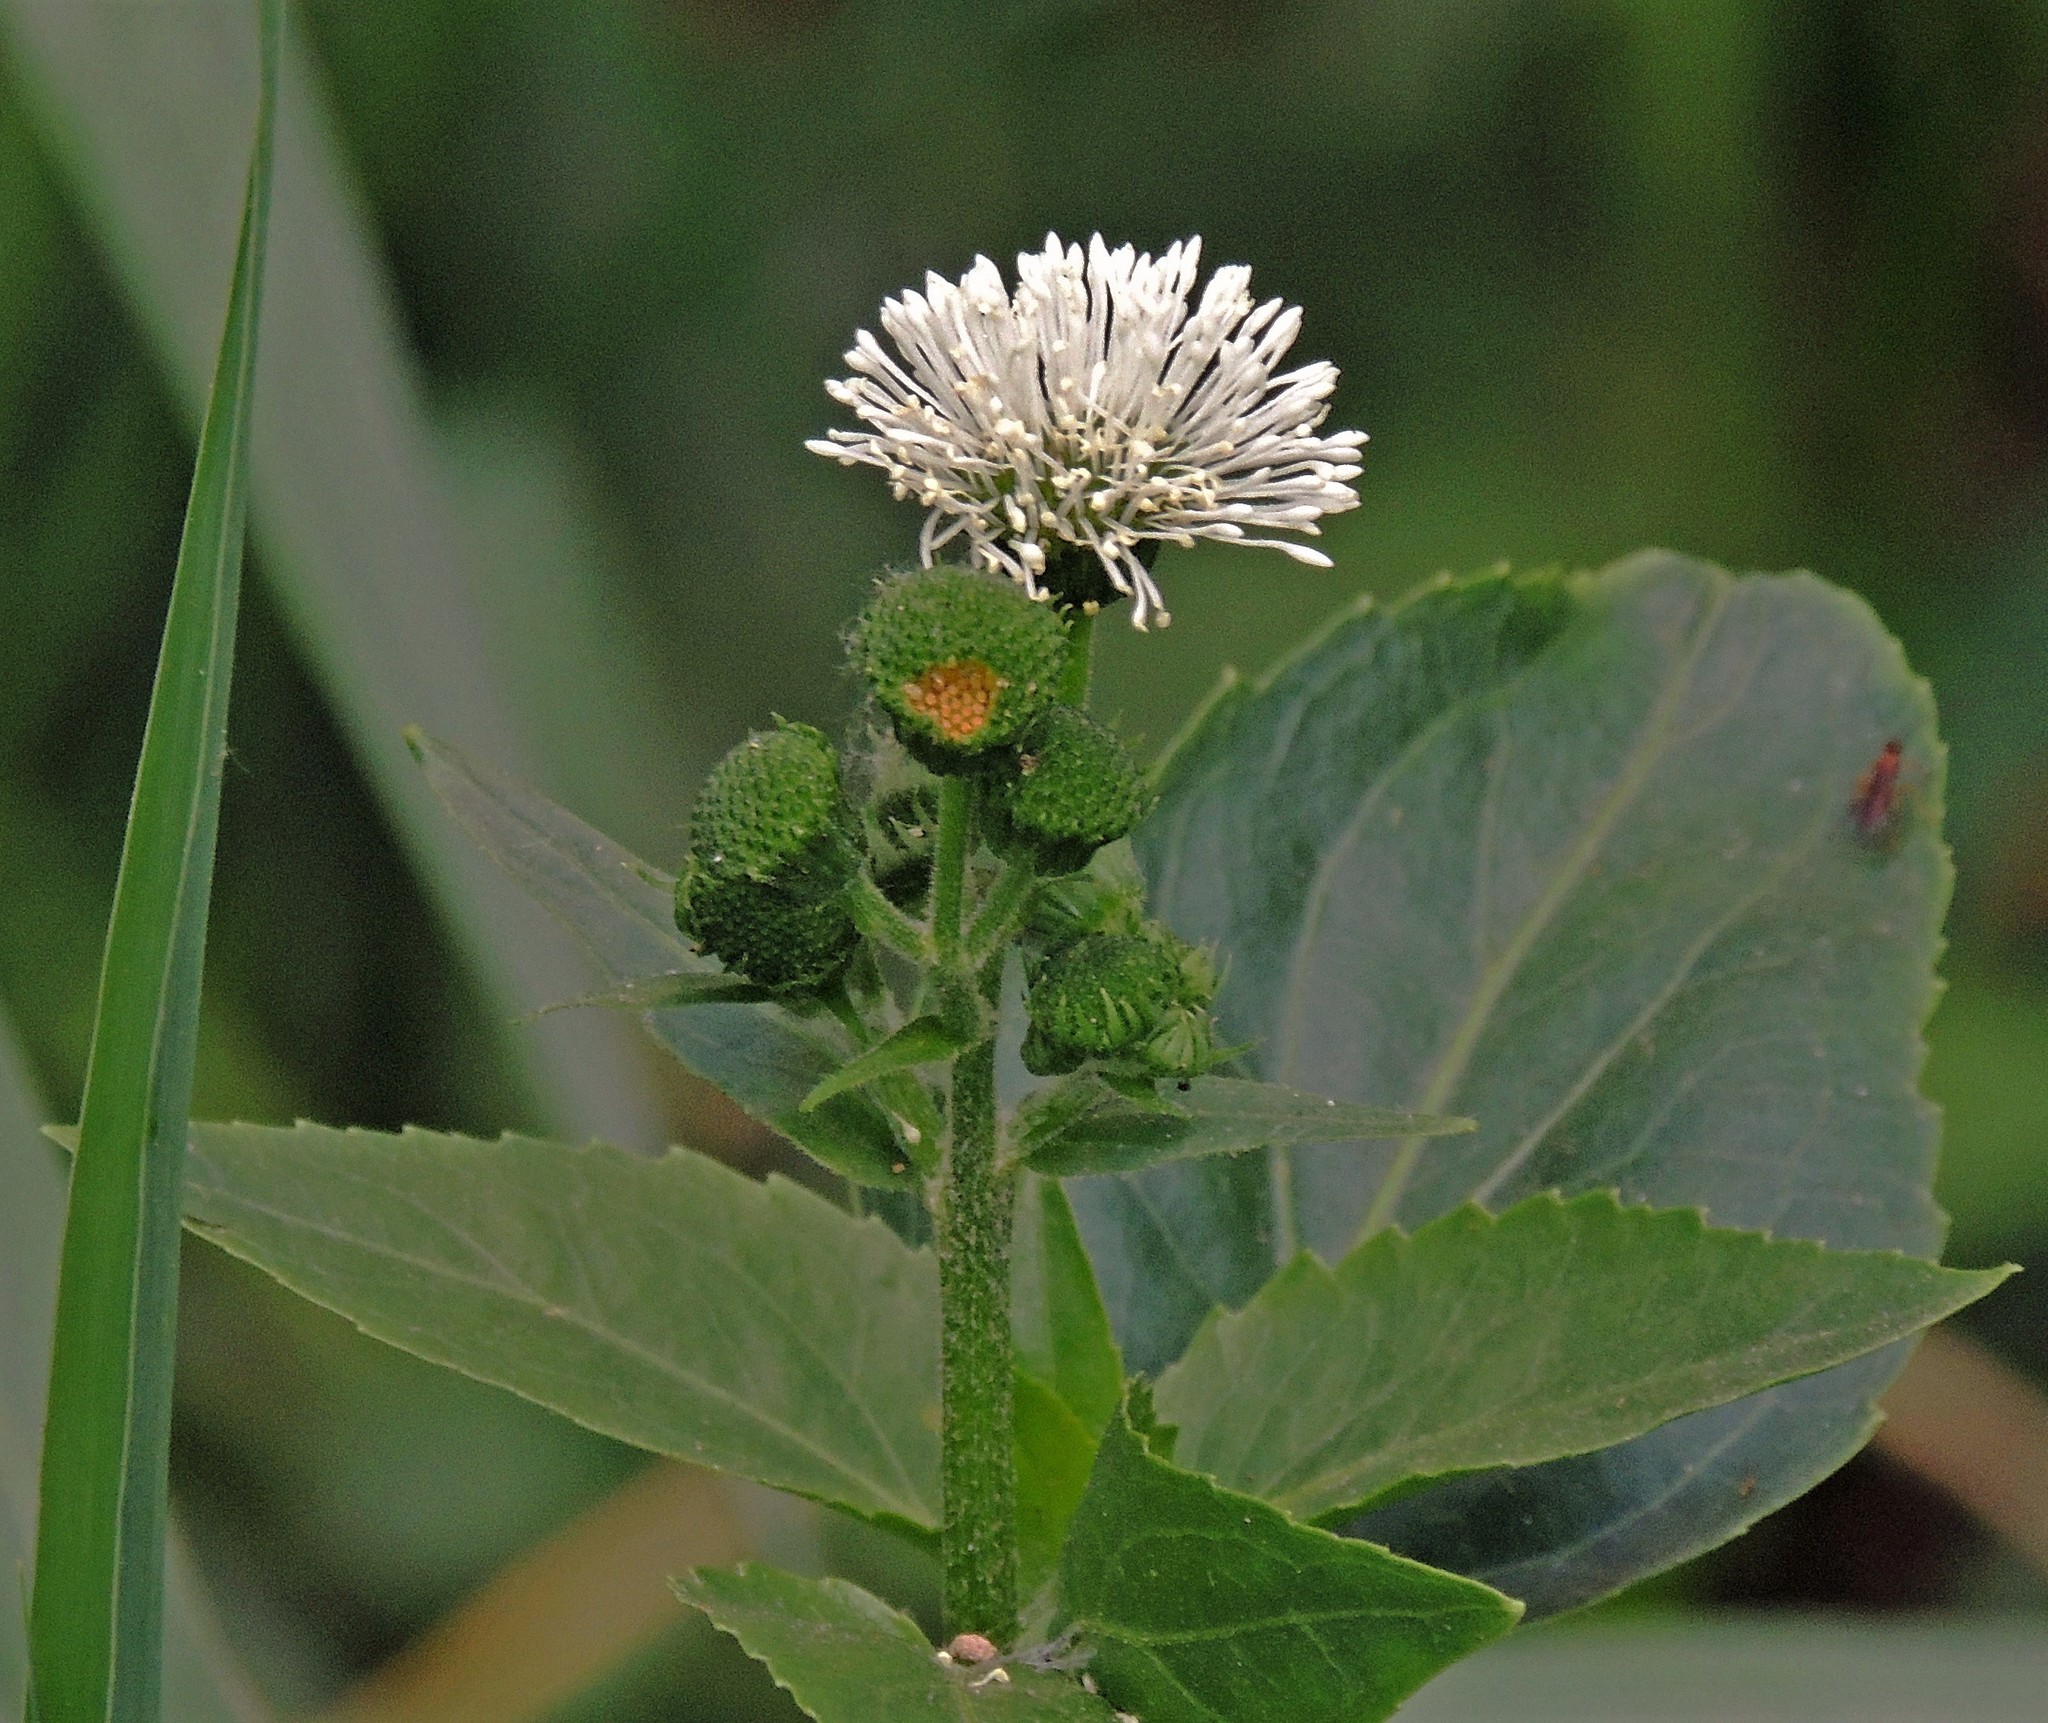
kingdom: Plantae
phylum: Tracheophyta
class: Magnoliopsida
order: Asterales
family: Asteraceae
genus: Gymnocoronis
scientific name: Gymnocoronis spilanthoides
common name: Senegal teaplant
